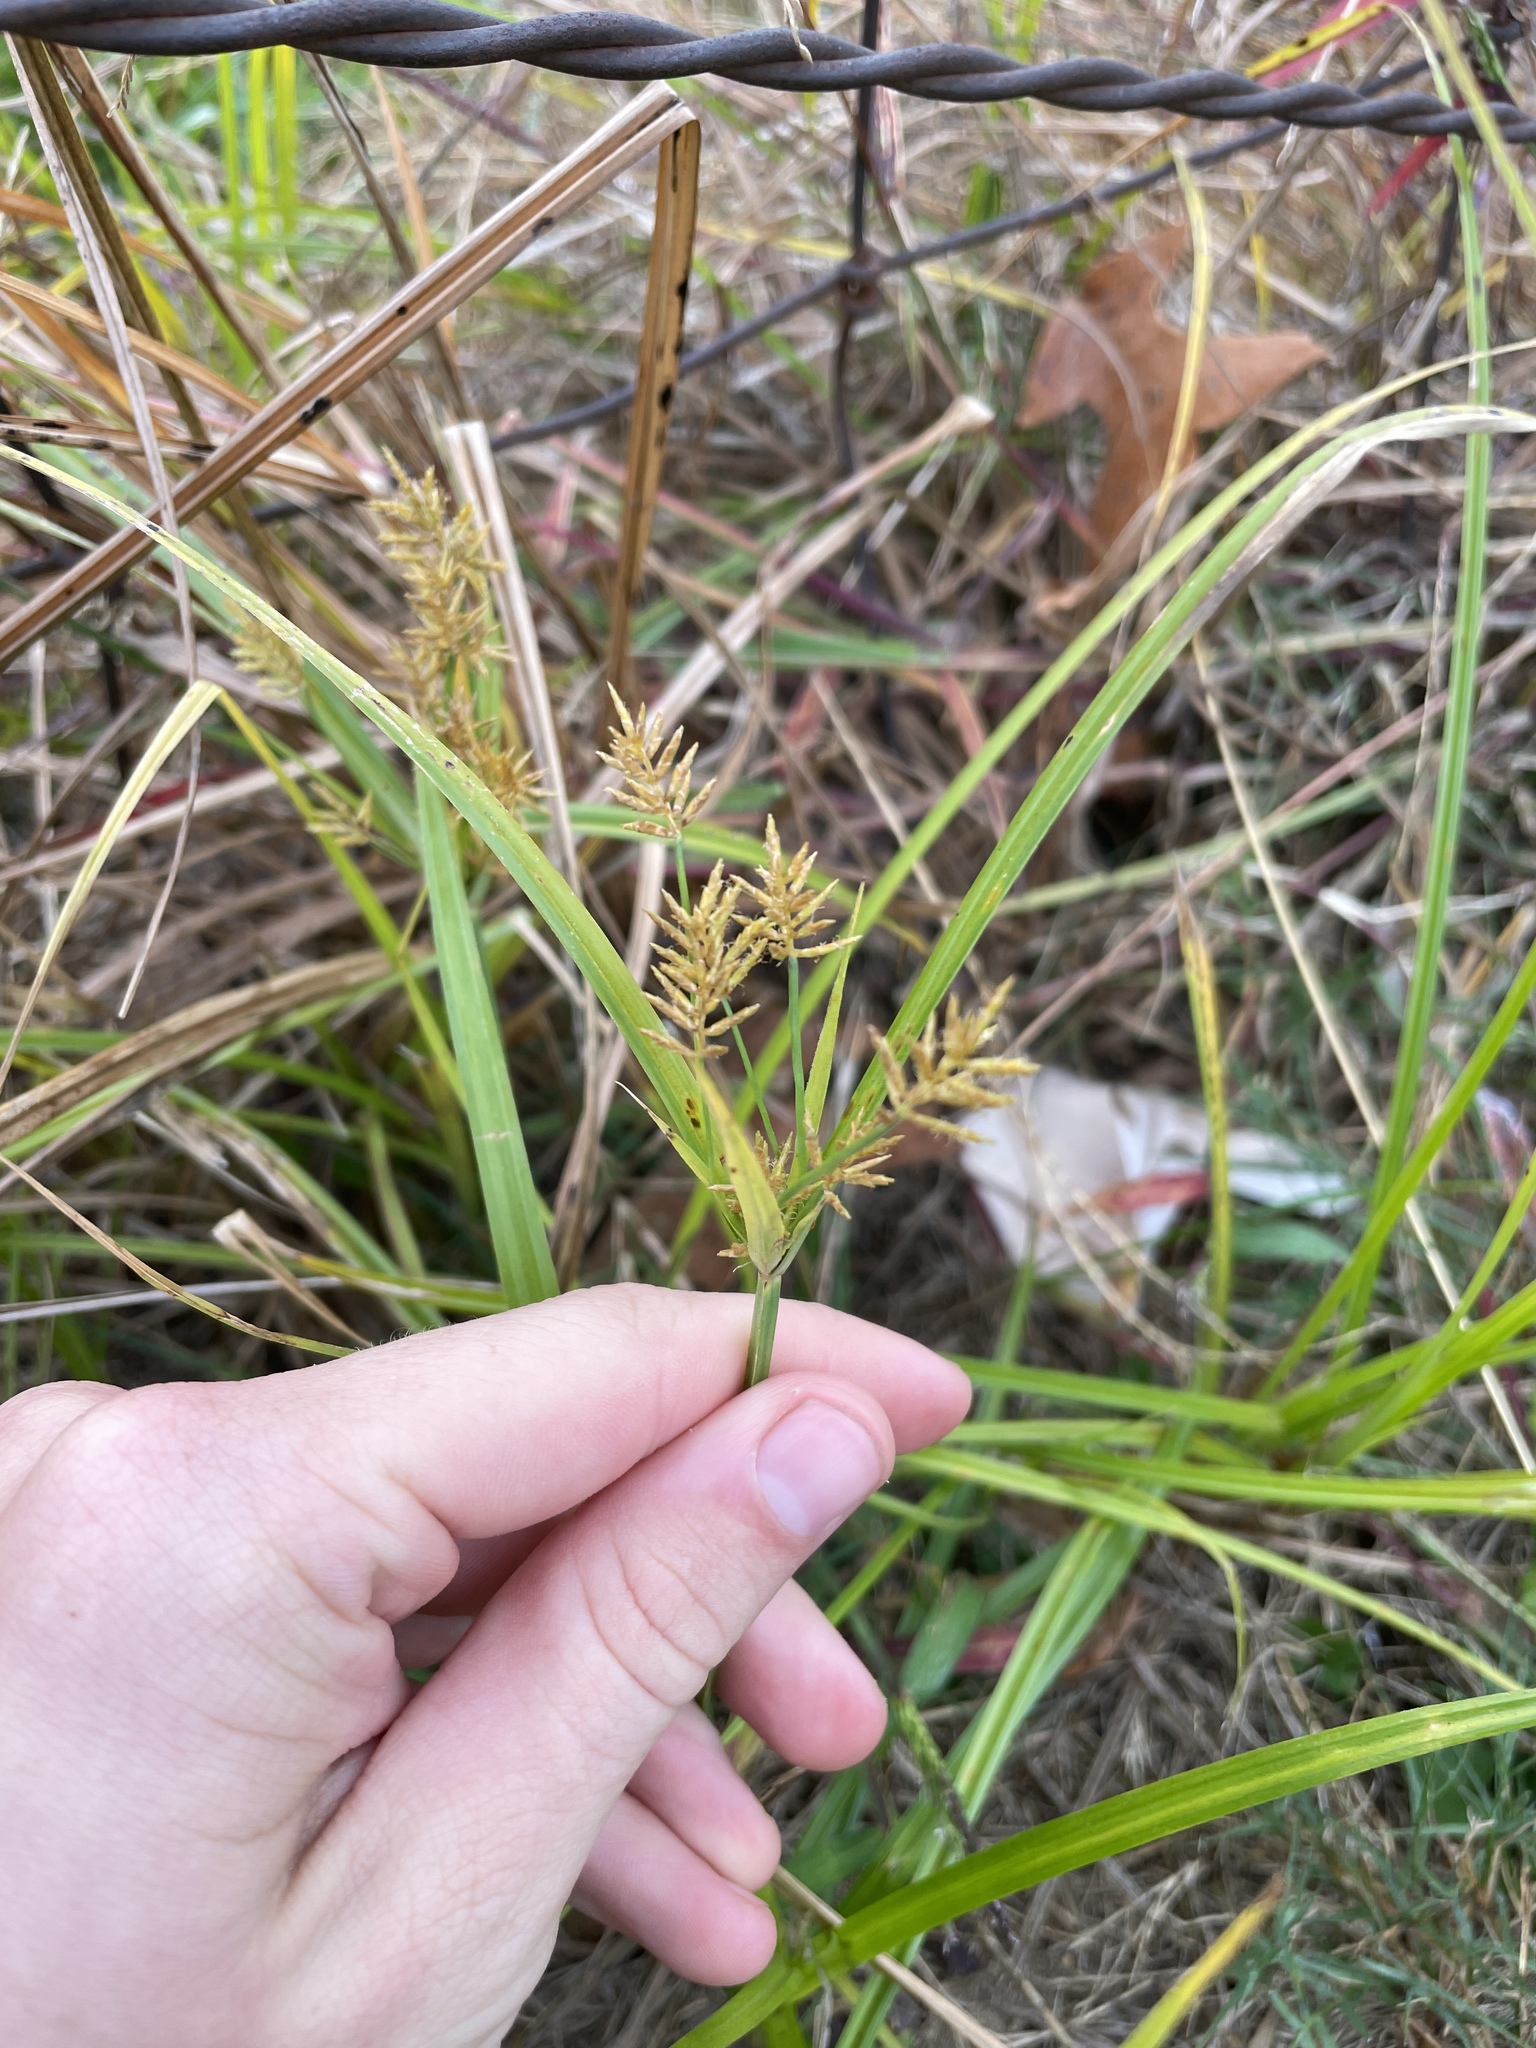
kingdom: Plantae
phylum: Tracheophyta
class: Liliopsida
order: Poales
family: Cyperaceae
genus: Cyperus
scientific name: Cyperus esculentus
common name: Yellow nutsedge
